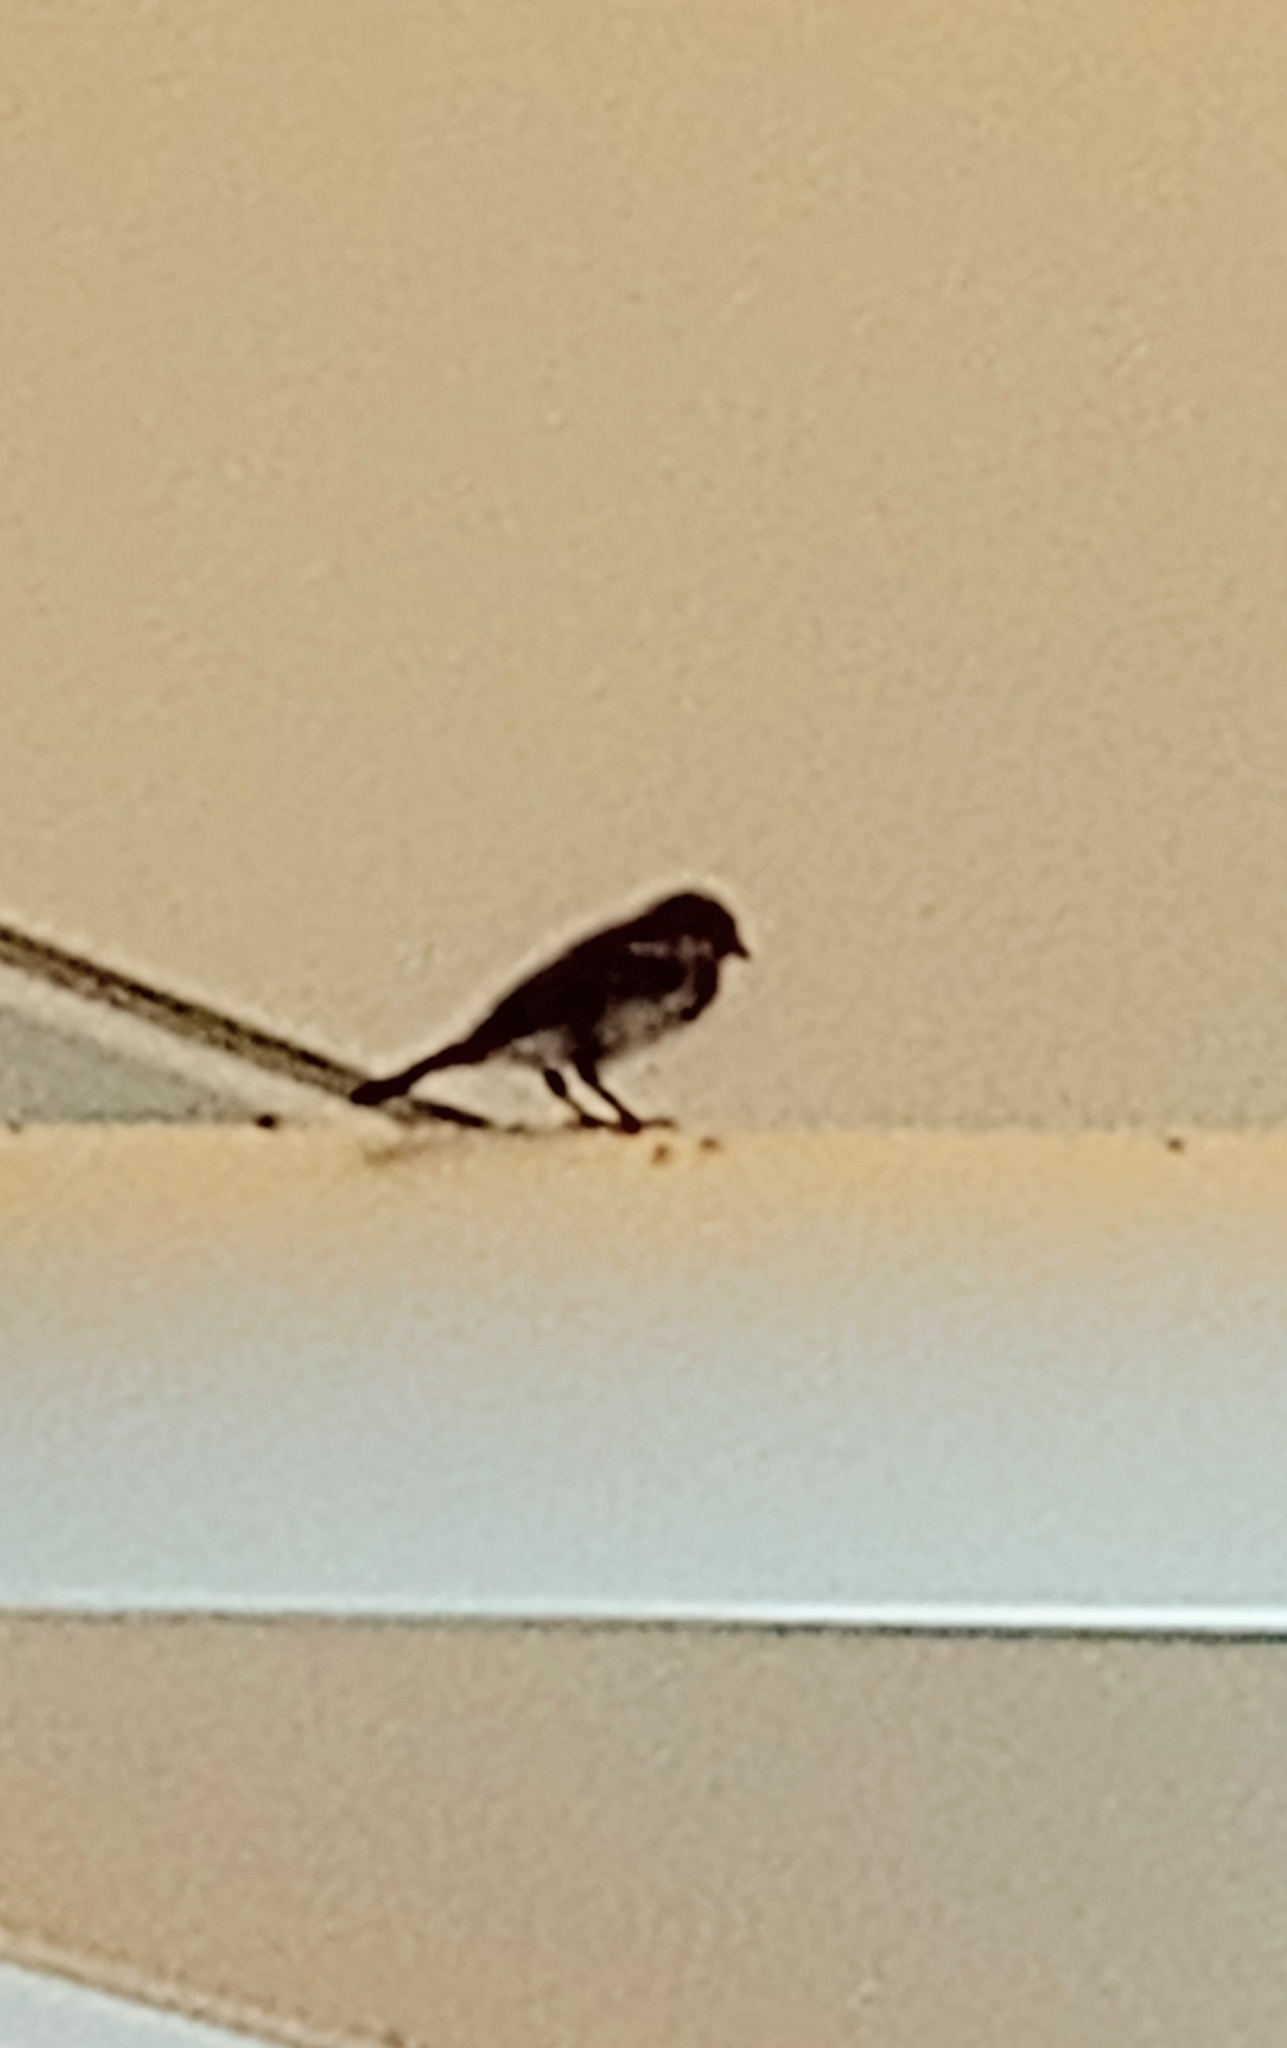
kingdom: Animalia
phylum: Chordata
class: Aves
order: Passeriformes
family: Passeridae
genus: Passer
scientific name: Passer domesticus
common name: House sparrow
